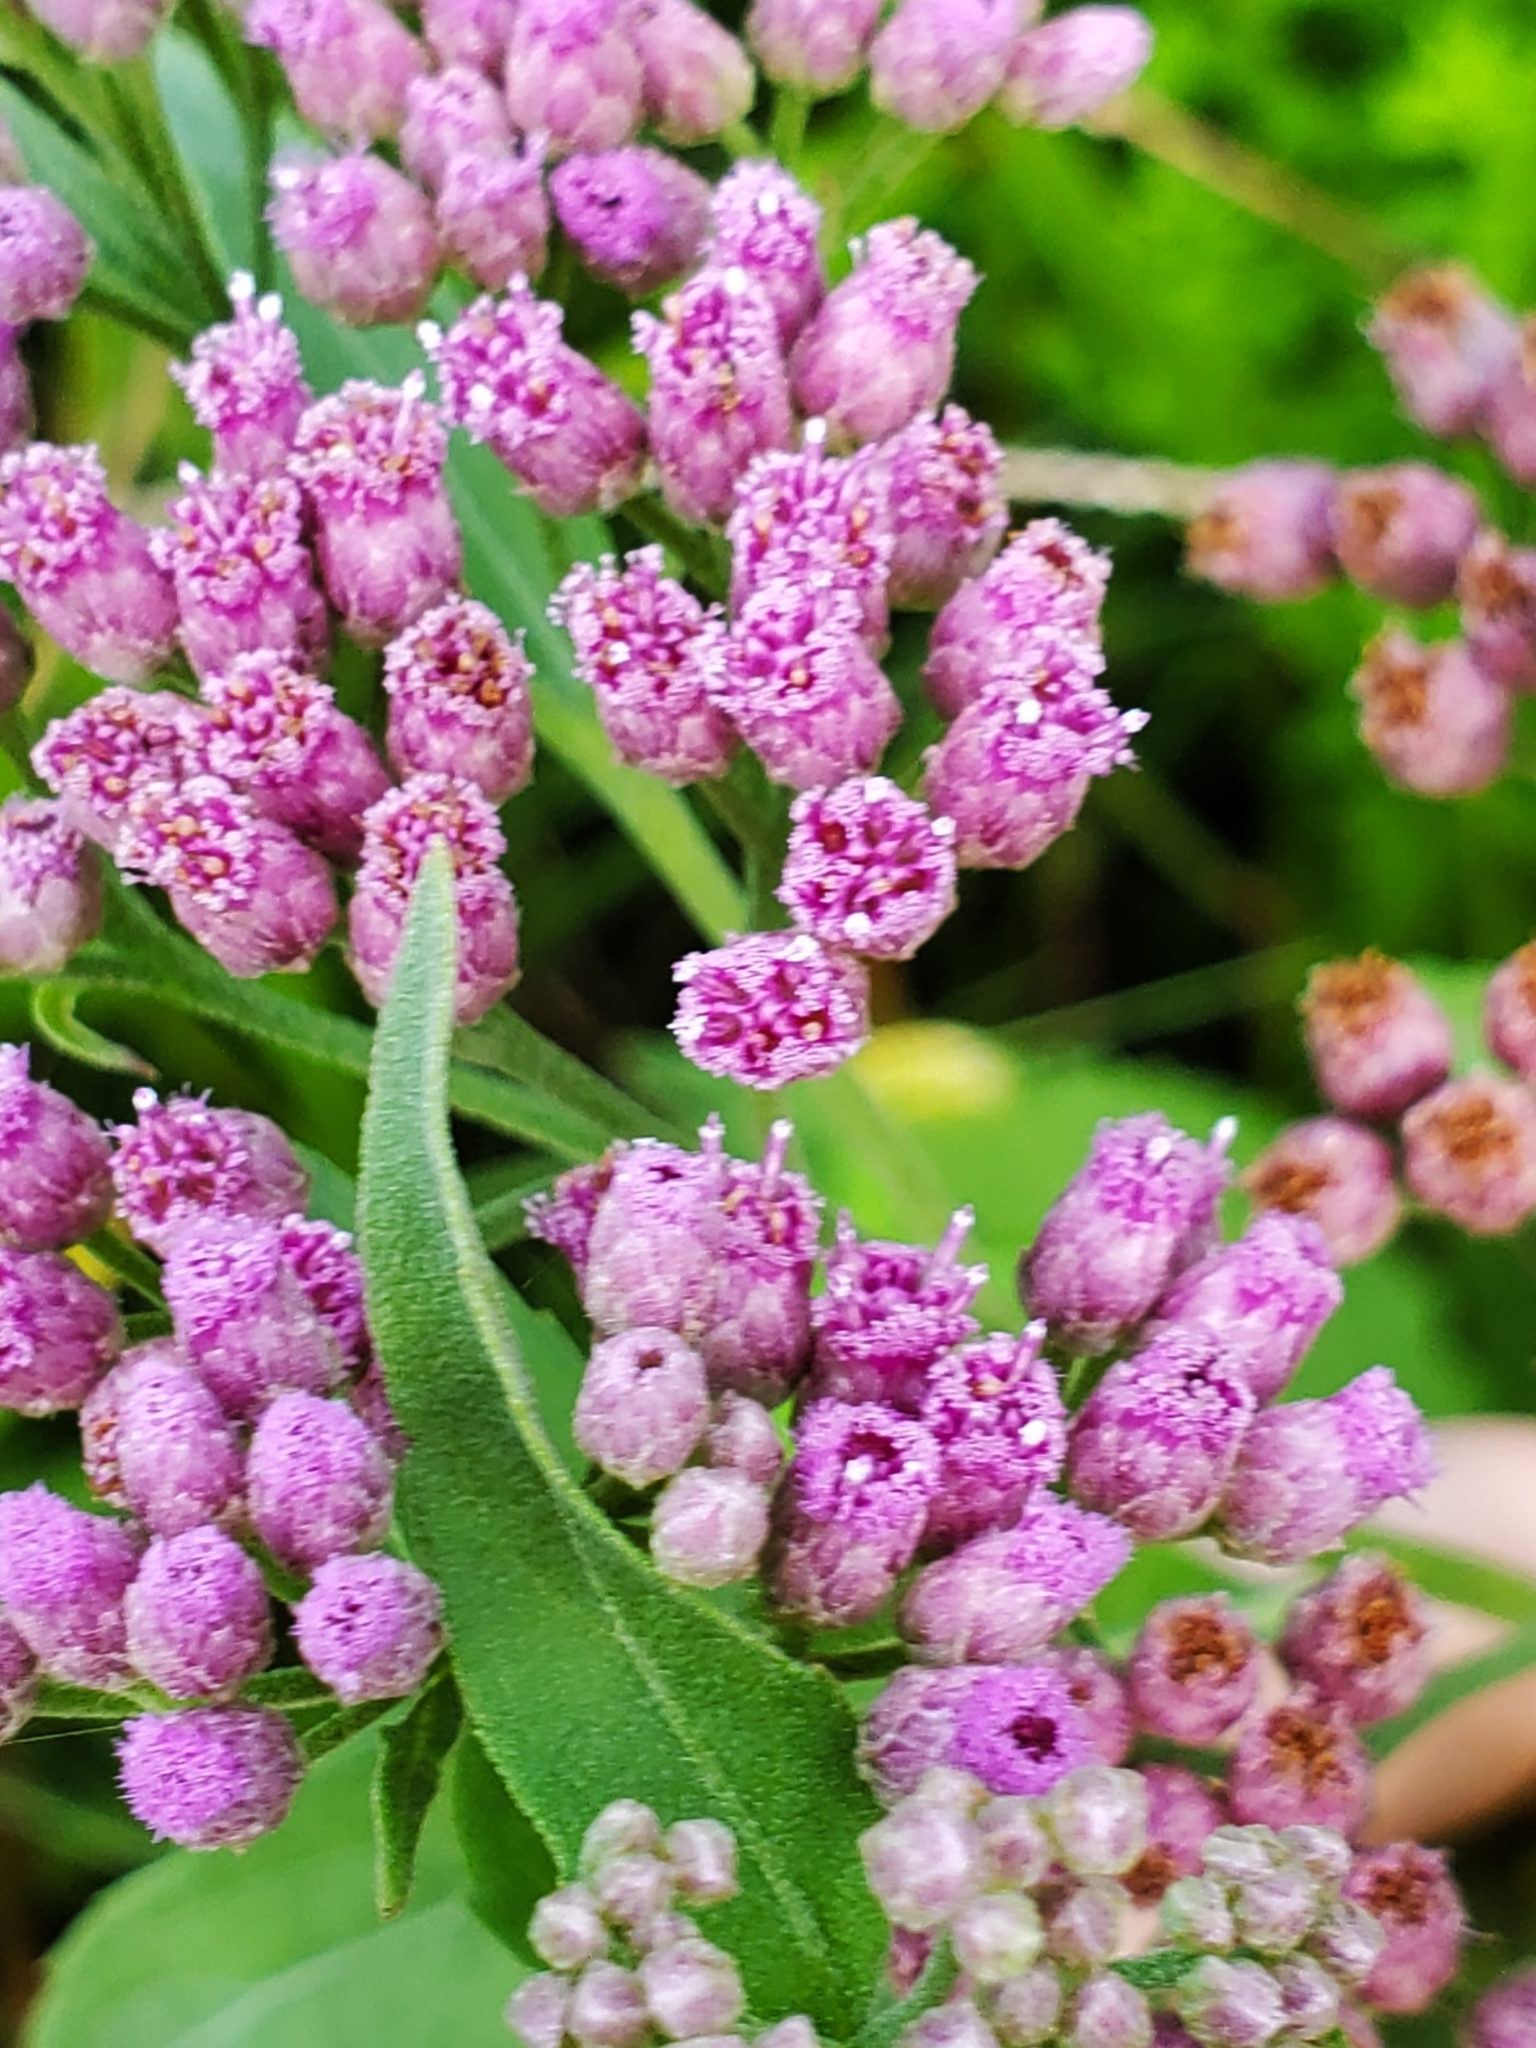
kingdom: Plantae
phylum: Tracheophyta
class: Magnoliopsida
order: Asterales
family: Asteraceae
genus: Pluchea
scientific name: Pluchea odorata
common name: Saltmarsh fleabane
